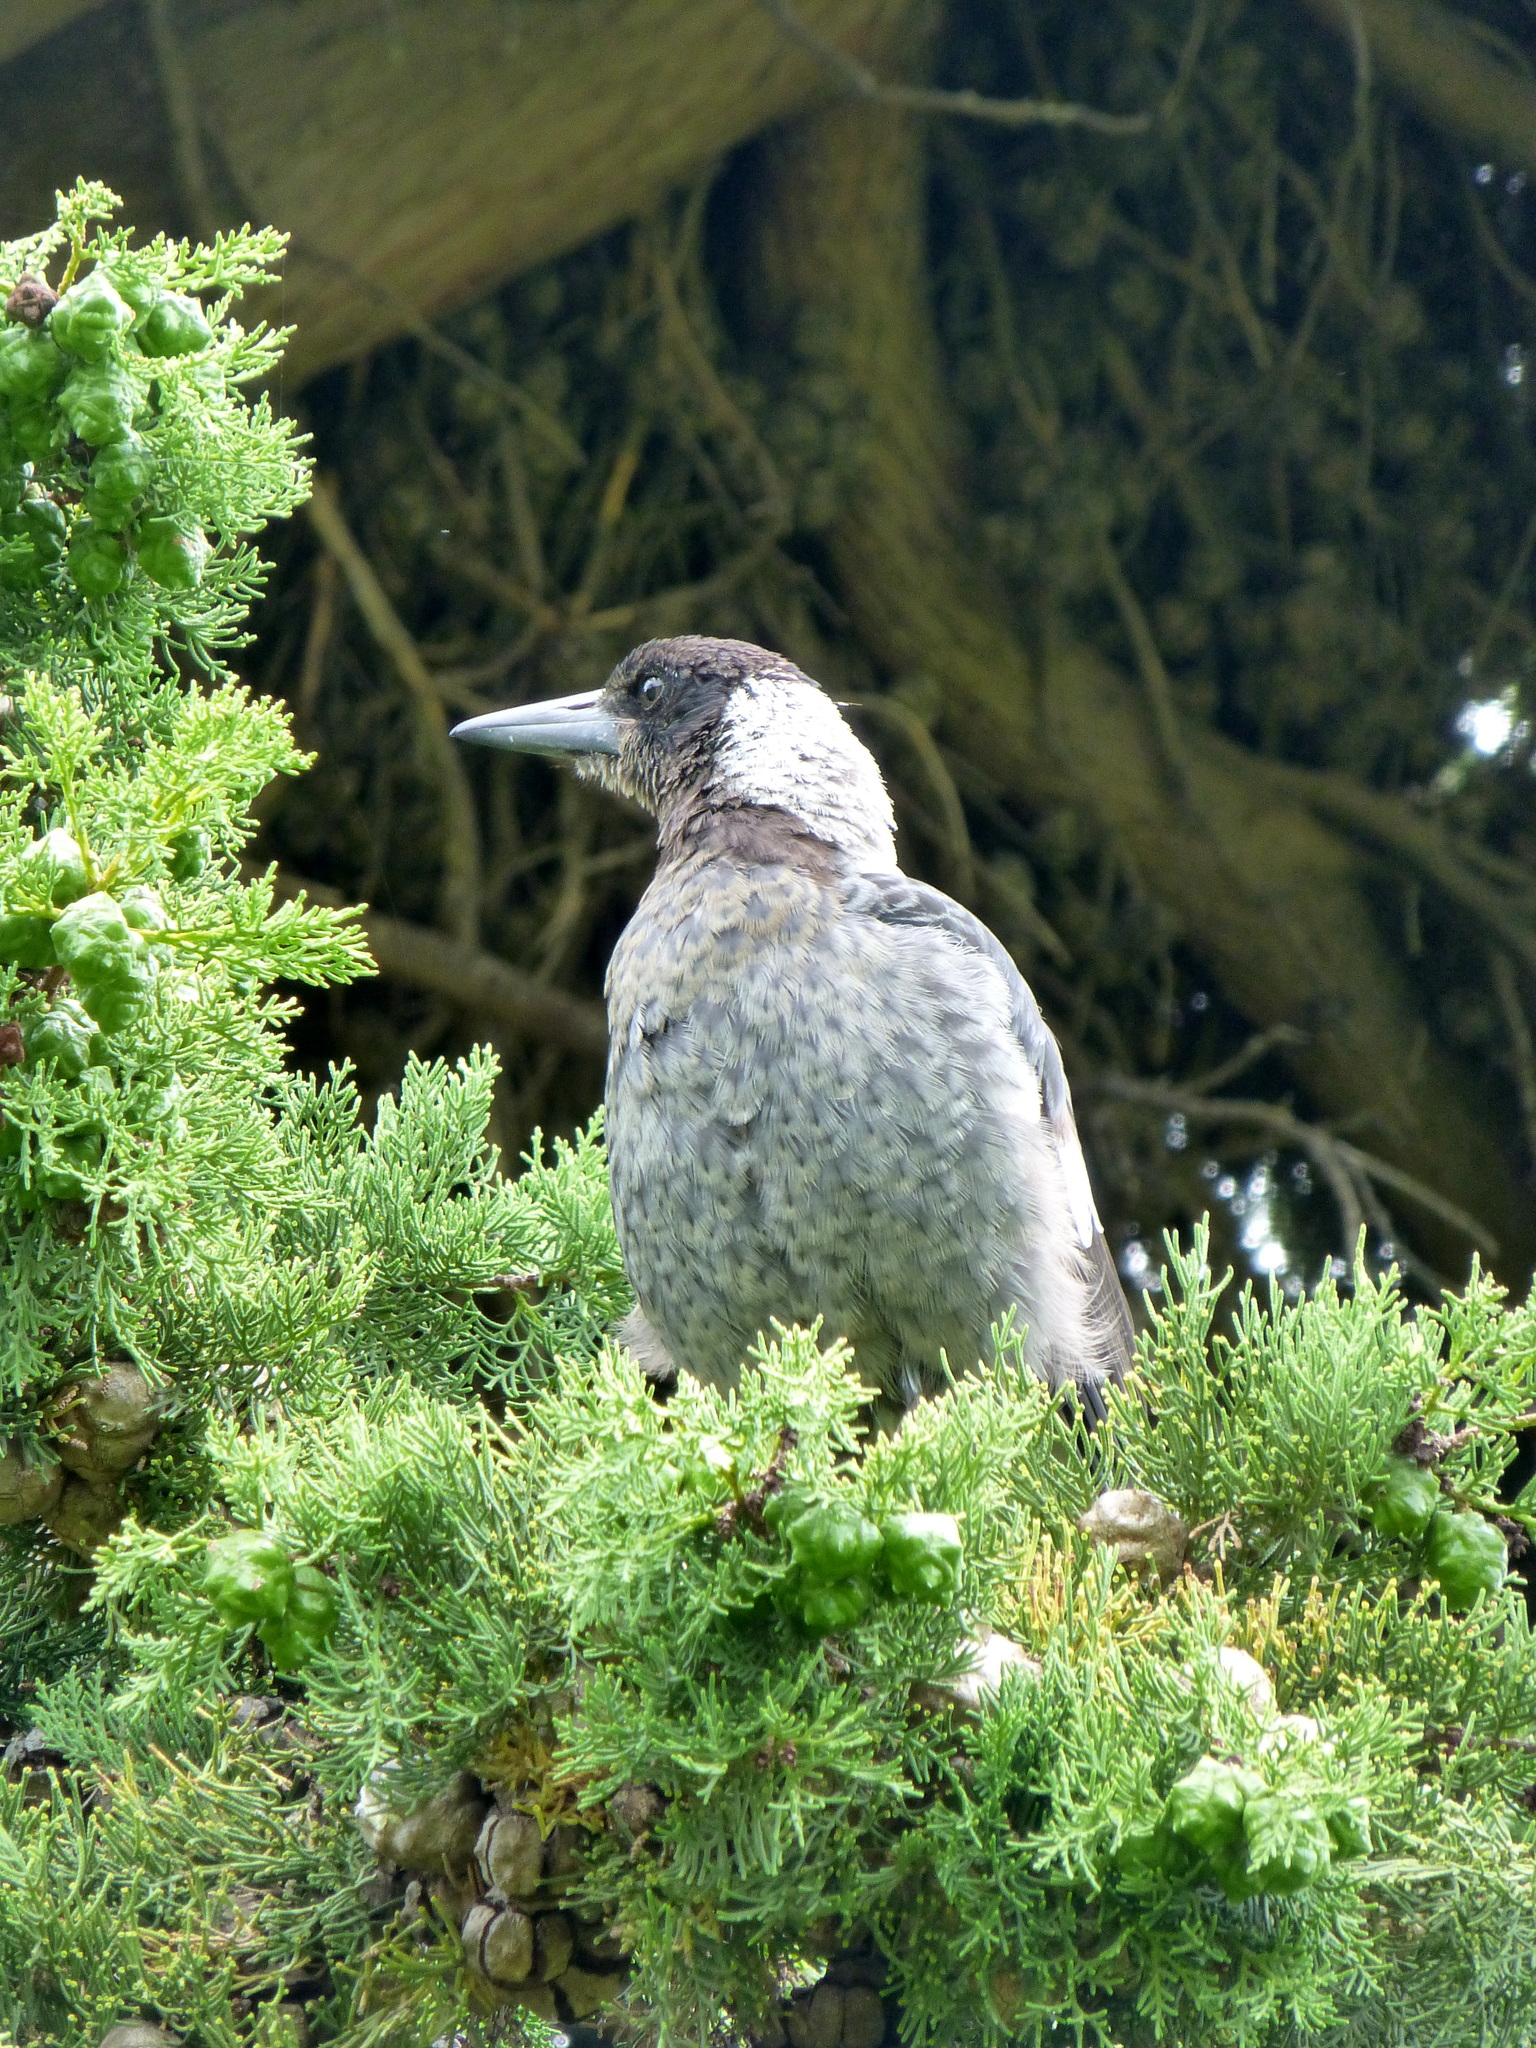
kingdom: Animalia
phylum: Chordata
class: Aves
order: Passeriformes
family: Cracticidae
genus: Gymnorhina
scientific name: Gymnorhina tibicen
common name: Australian magpie
